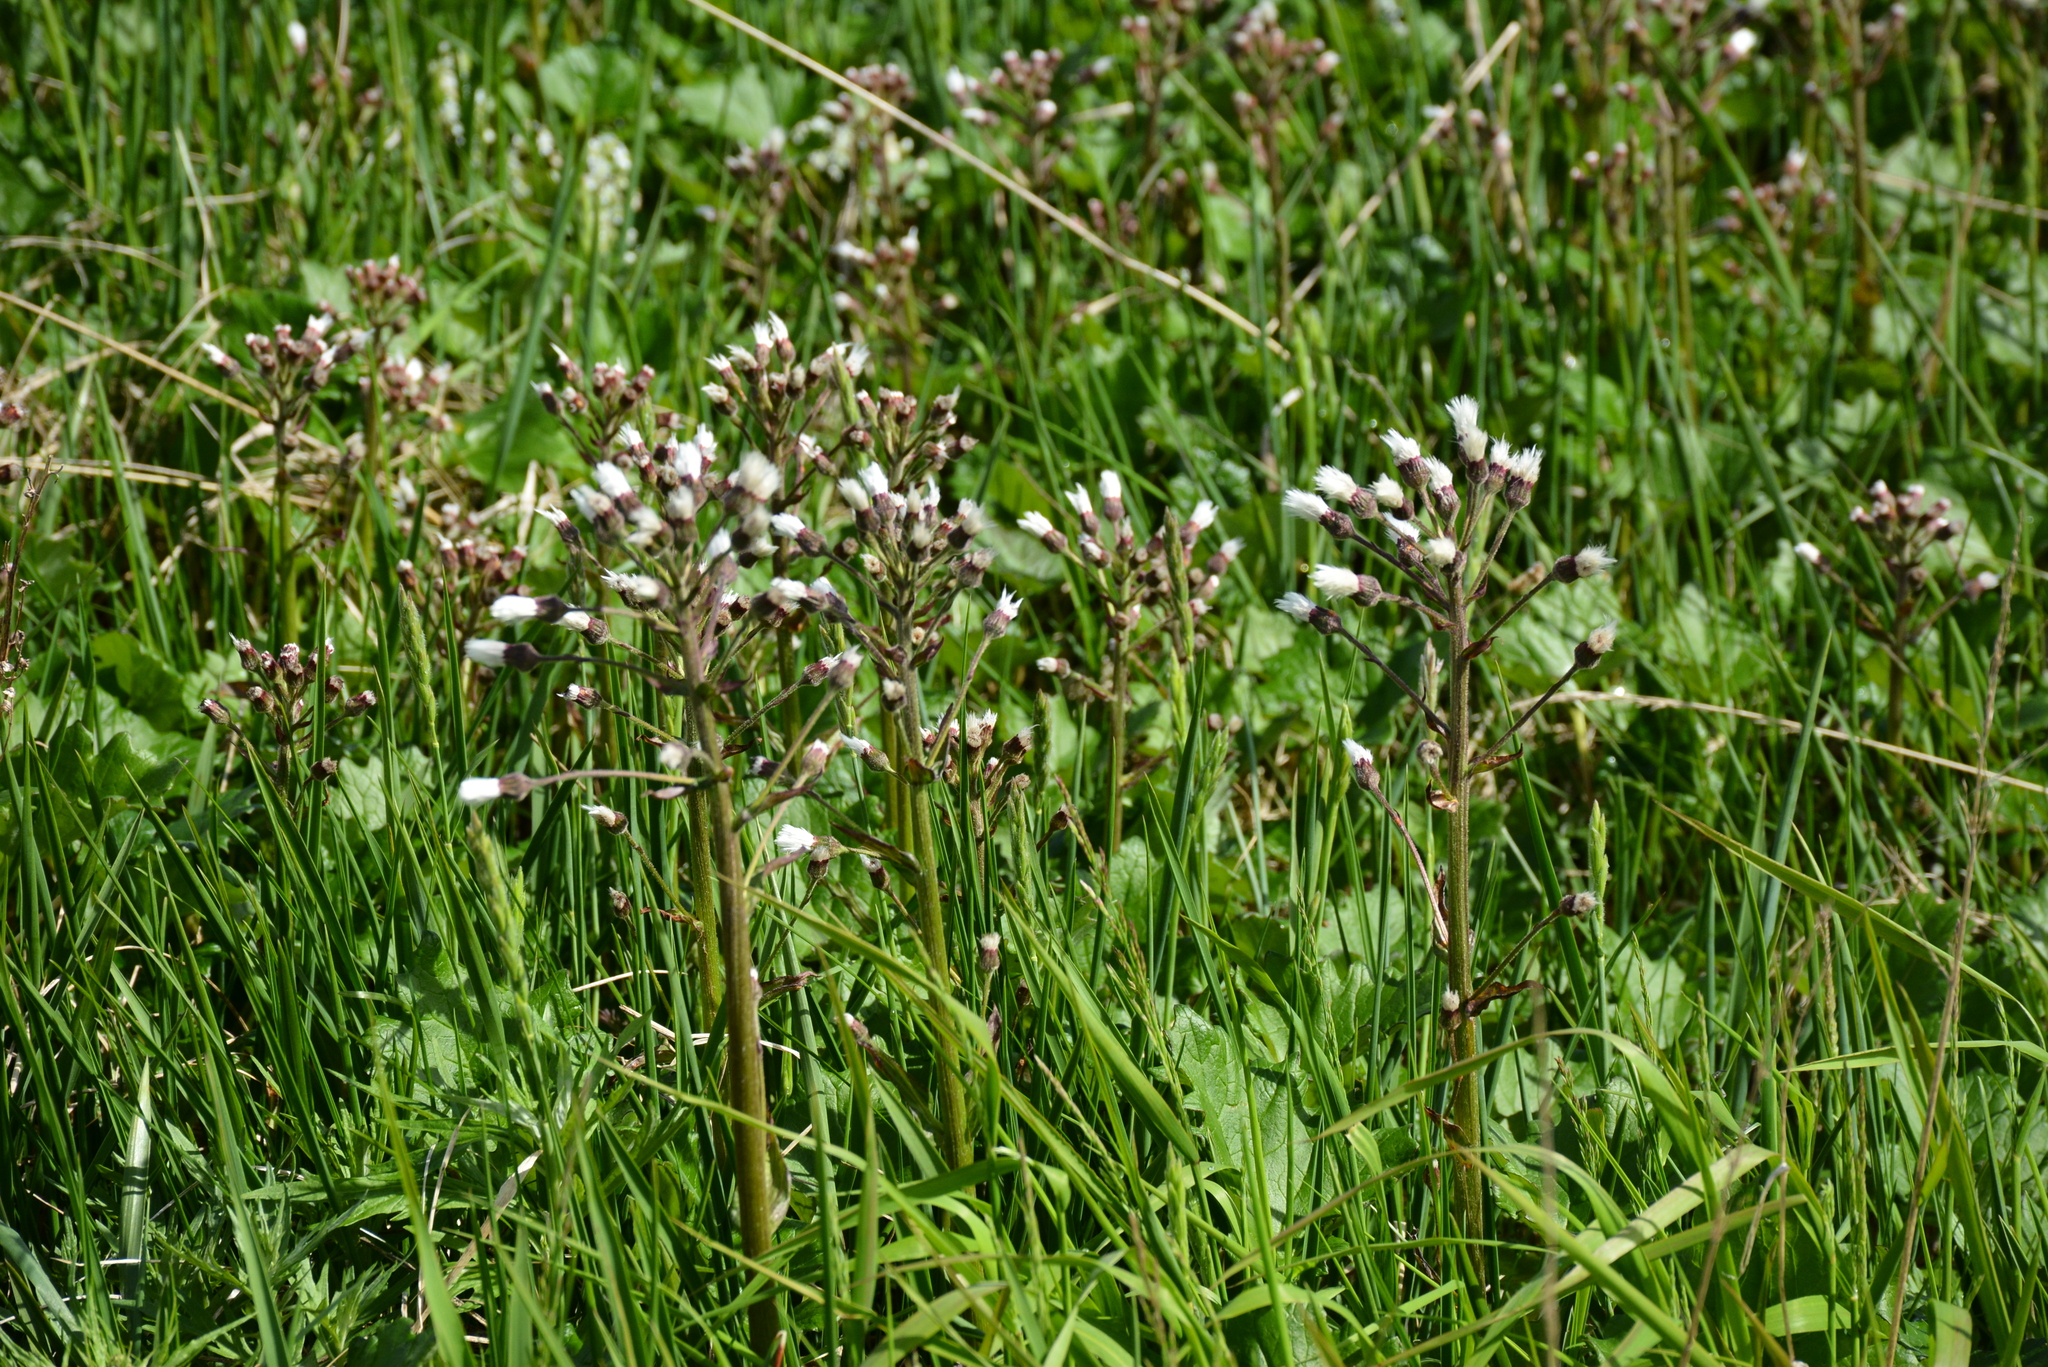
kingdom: Plantae
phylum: Tracheophyta
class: Magnoliopsida
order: Asterales
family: Asteraceae
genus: Petasites
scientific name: Petasites frigidus
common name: Arctic butterbur
